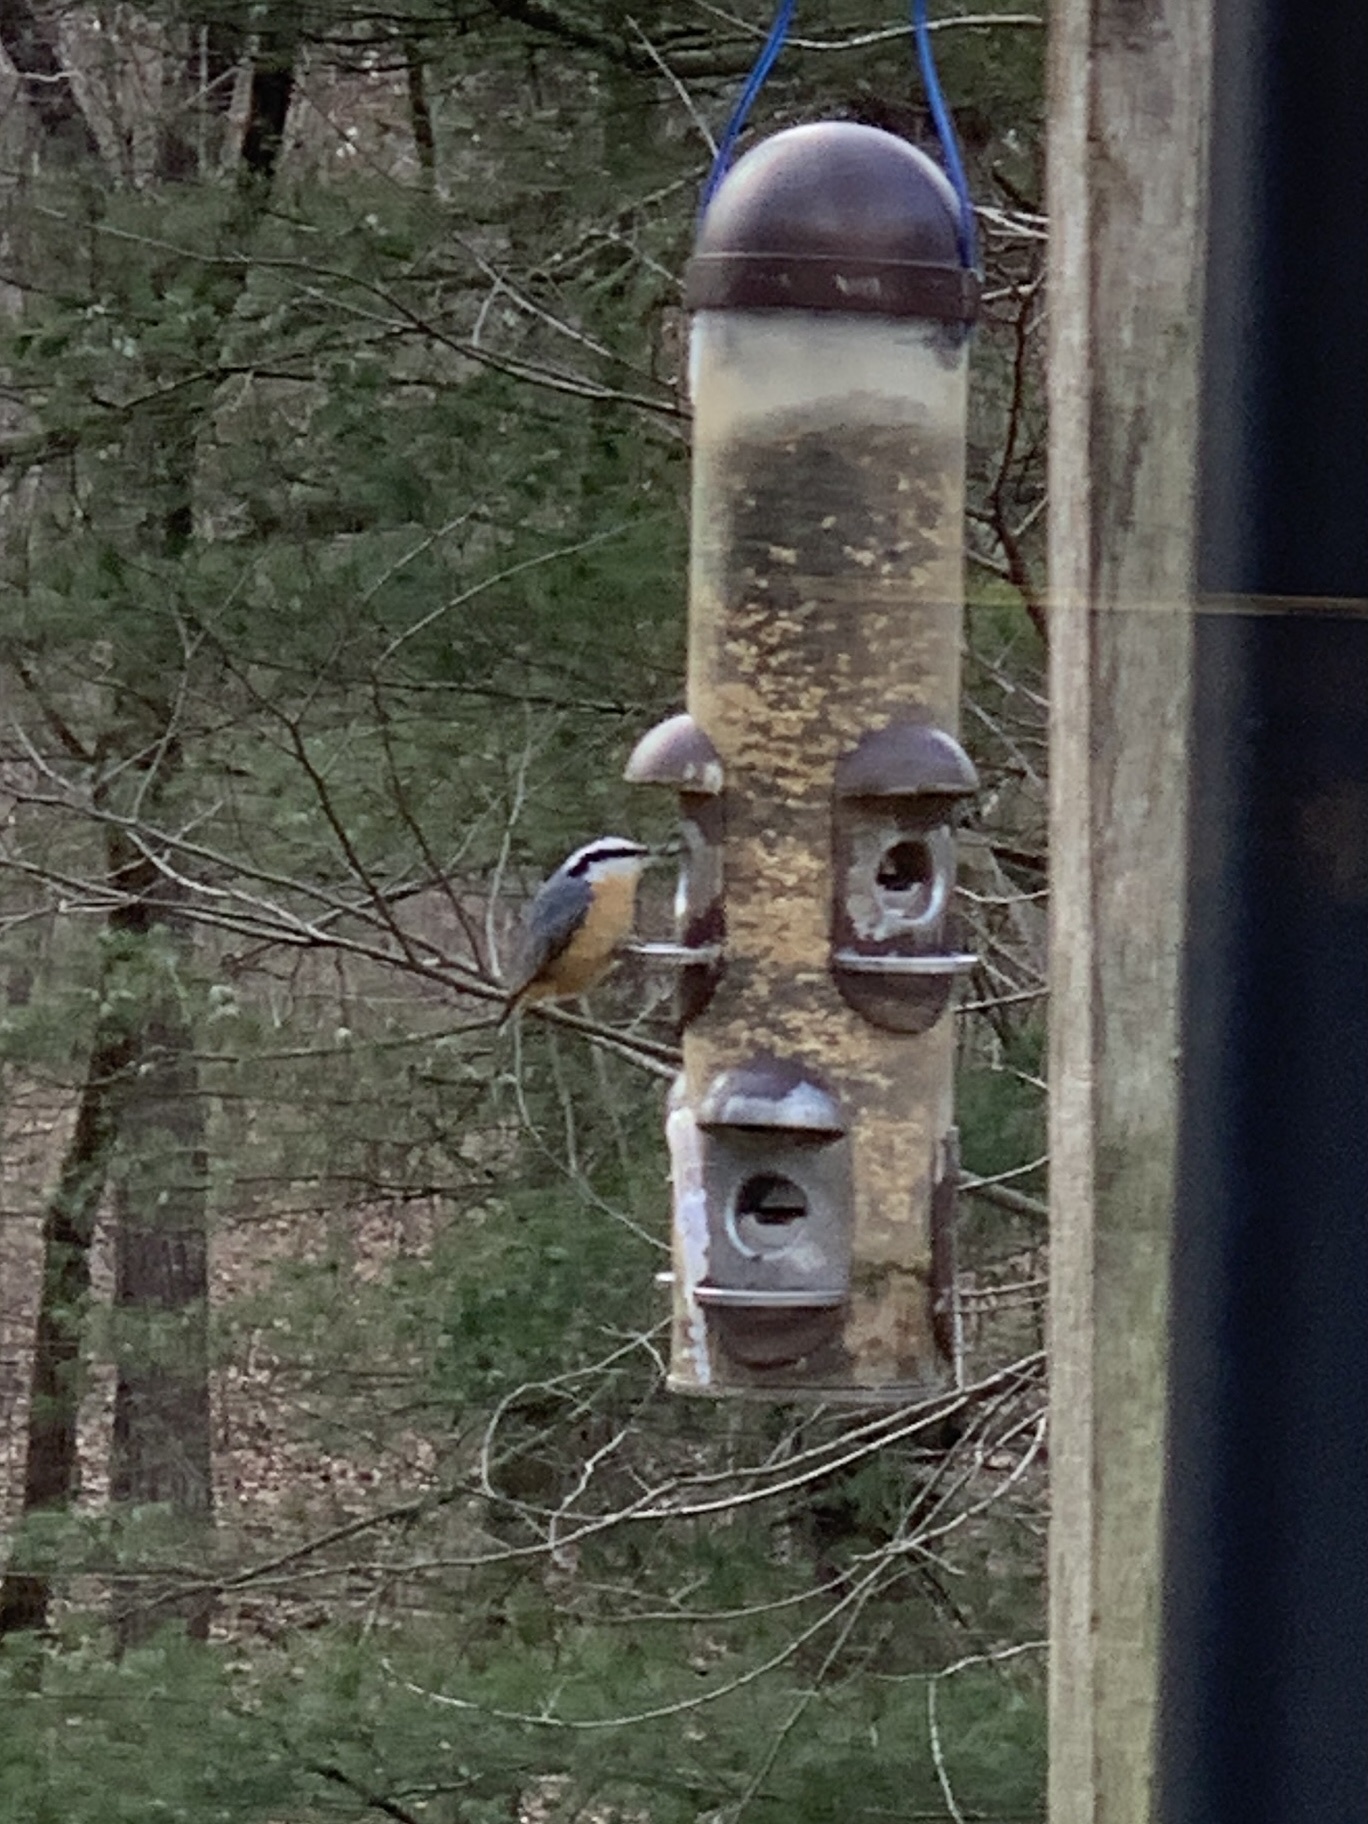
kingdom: Animalia
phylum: Chordata
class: Aves
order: Passeriformes
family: Sittidae
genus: Sitta
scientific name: Sitta canadensis
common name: Red-breasted nuthatch
